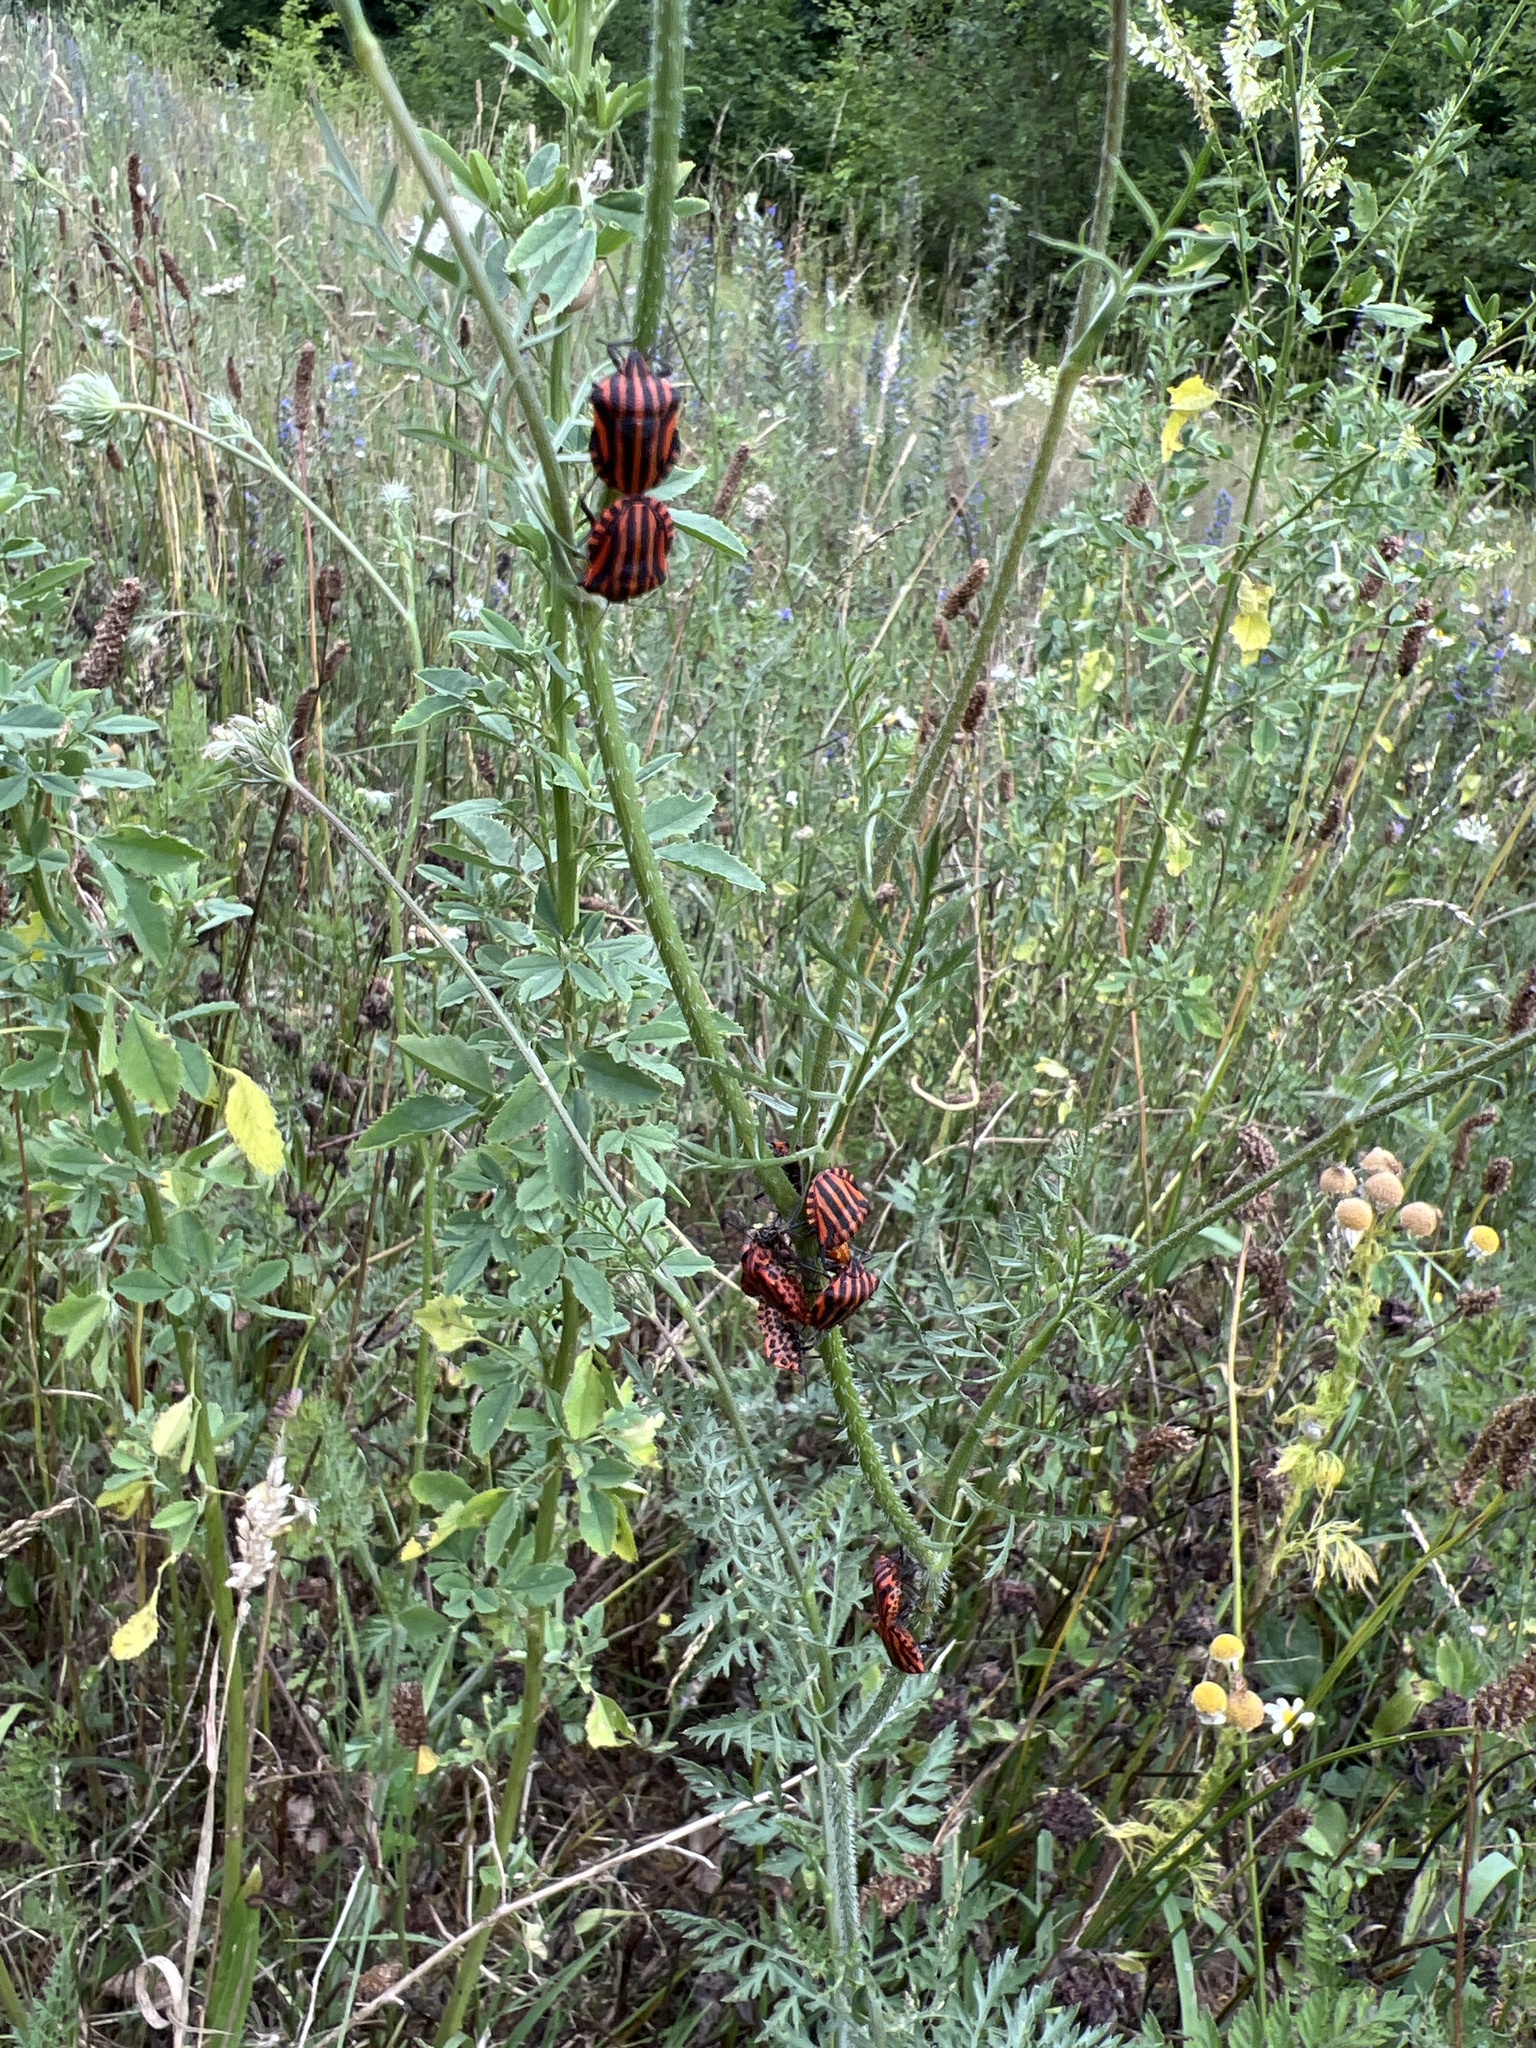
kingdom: Animalia
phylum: Arthropoda
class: Insecta
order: Hemiptera
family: Pentatomidae
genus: Graphosoma
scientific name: Graphosoma italicum
